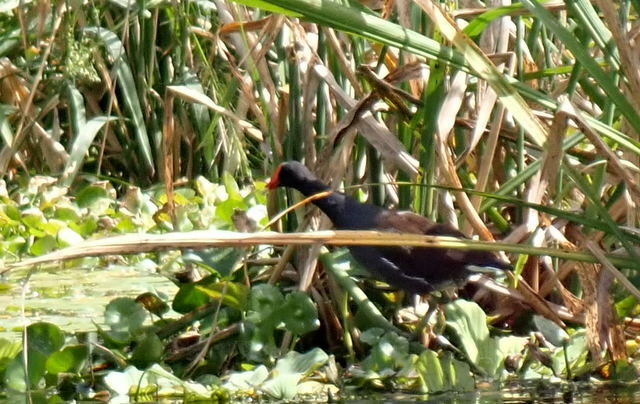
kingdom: Animalia
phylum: Chordata
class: Aves
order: Gruiformes
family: Rallidae
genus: Gallinula
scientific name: Gallinula chloropus
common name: Common moorhen
